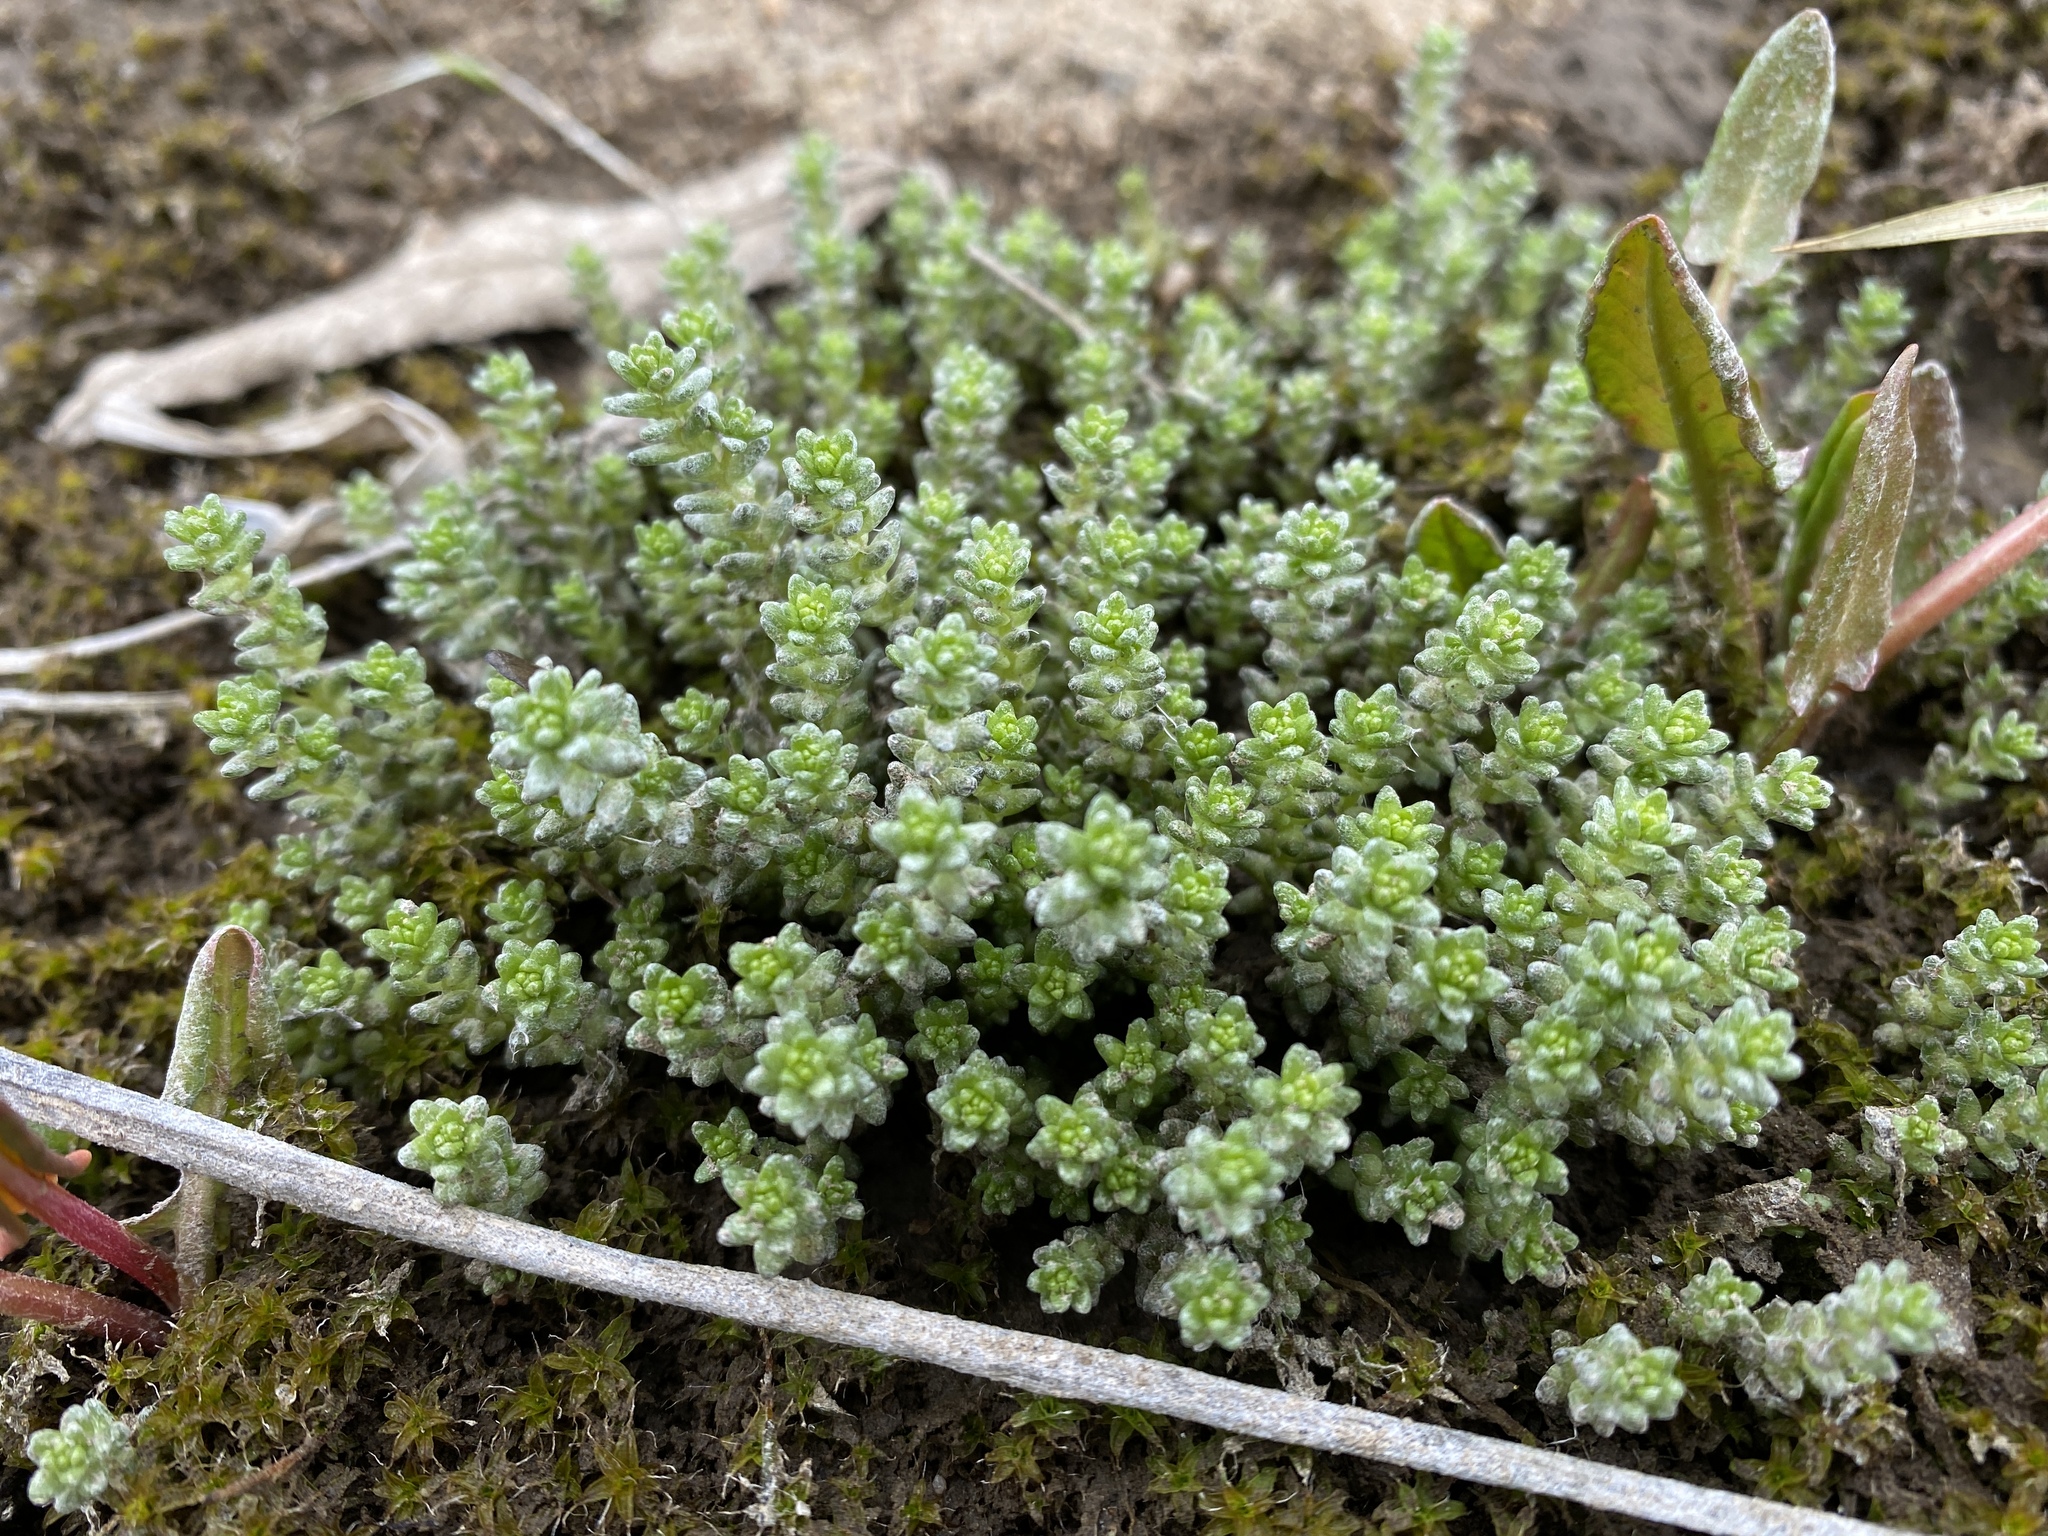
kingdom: Plantae
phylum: Tracheophyta
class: Magnoliopsida
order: Saxifragales
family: Crassulaceae
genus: Sedum
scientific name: Sedum acre
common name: Biting stonecrop
